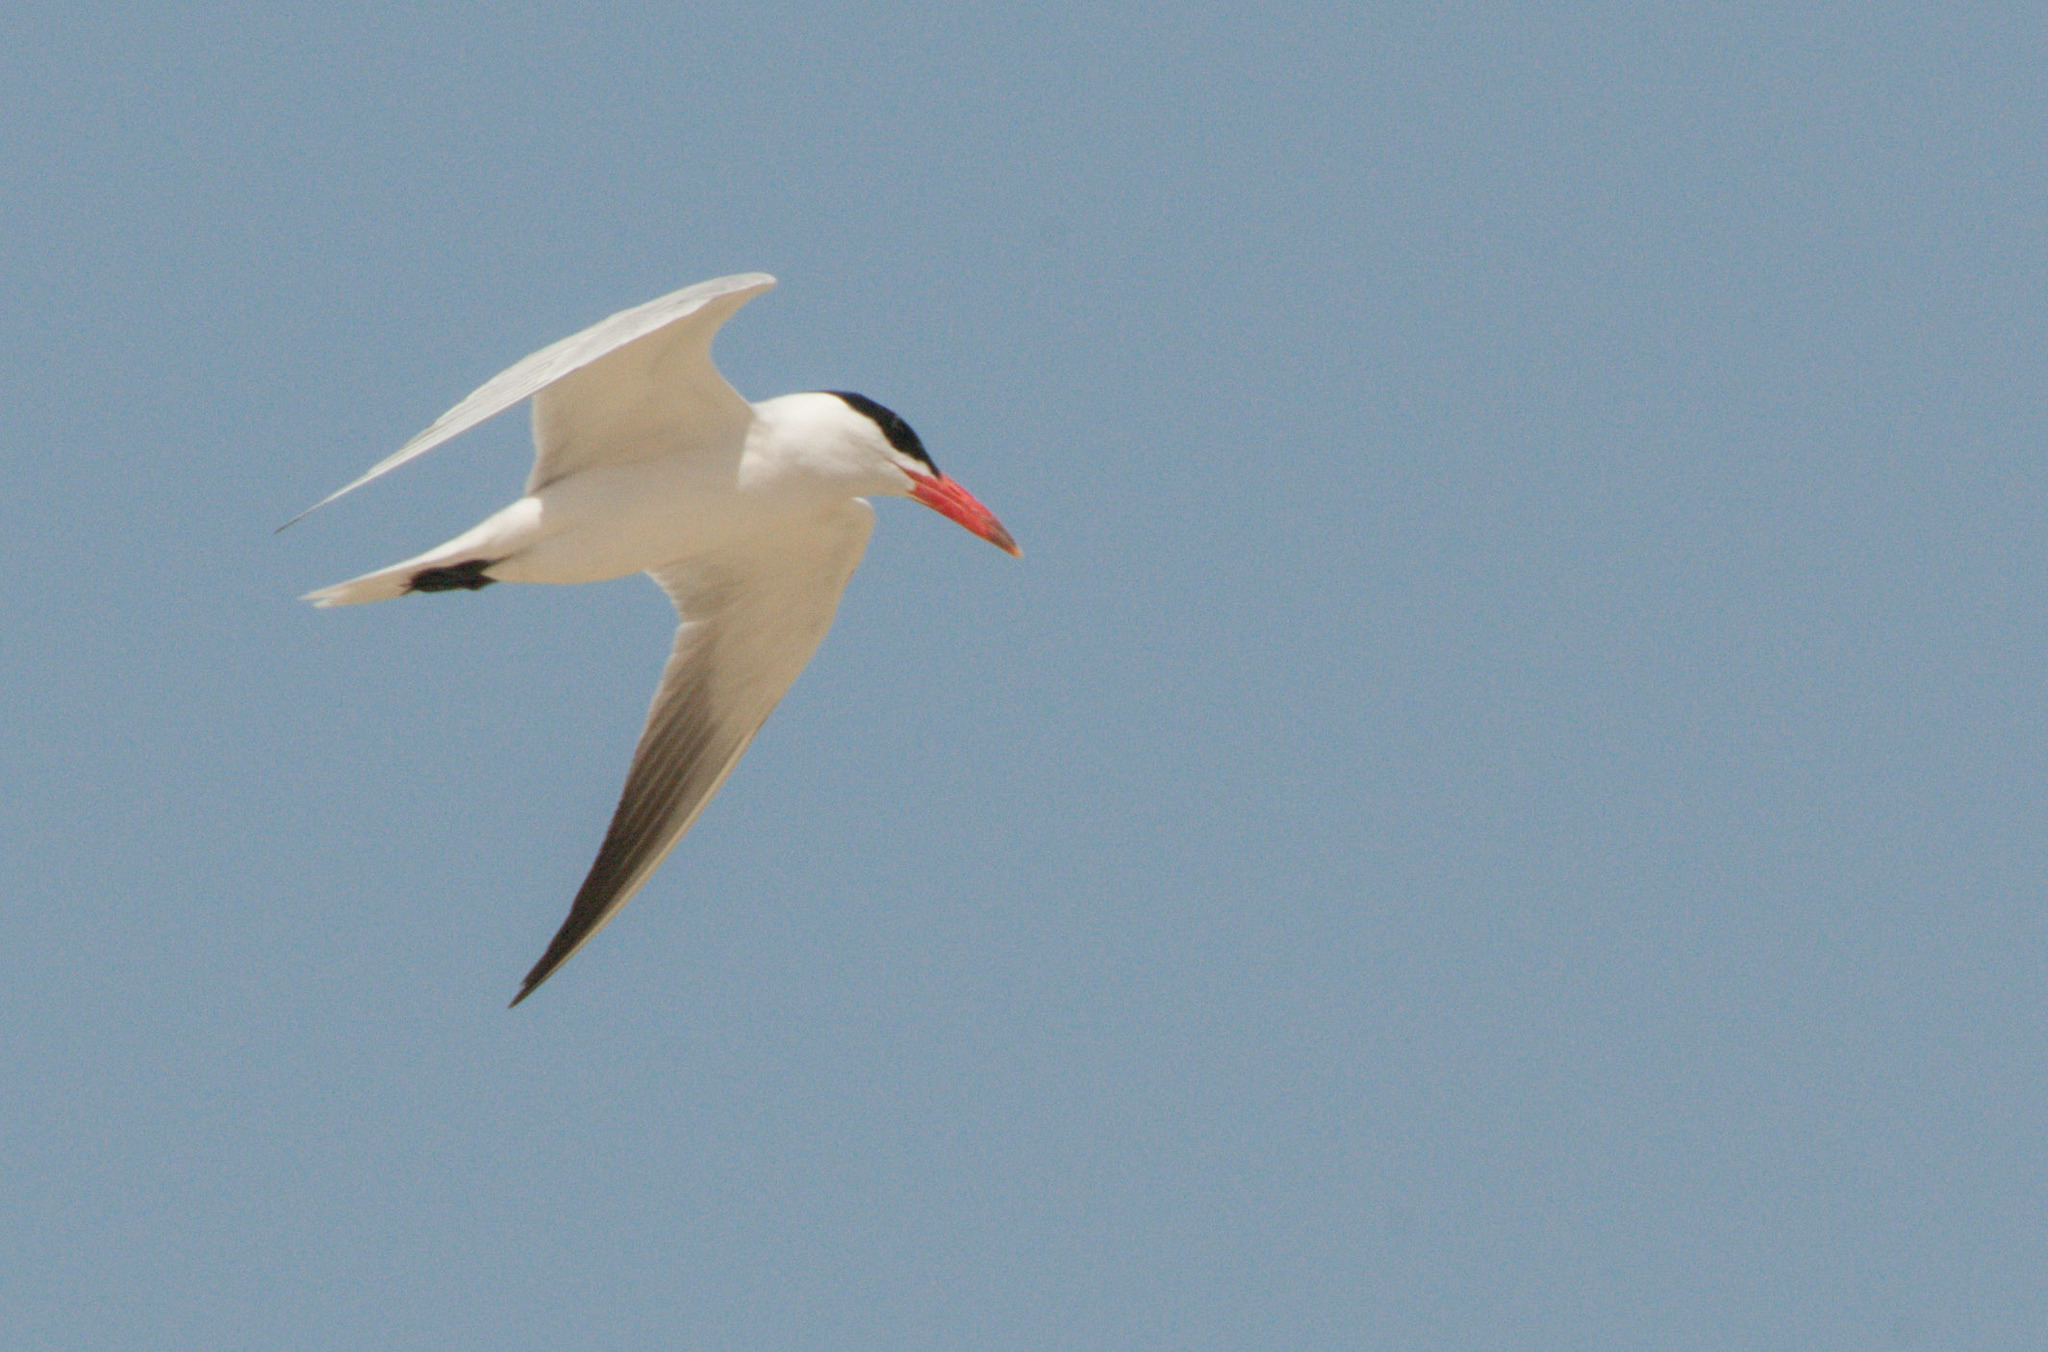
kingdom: Animalia
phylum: Chordata
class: Aves
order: Charadriiformes
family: Laridae
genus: Hydroprogne
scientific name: Hydroprogne caspia
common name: Caspian tern
